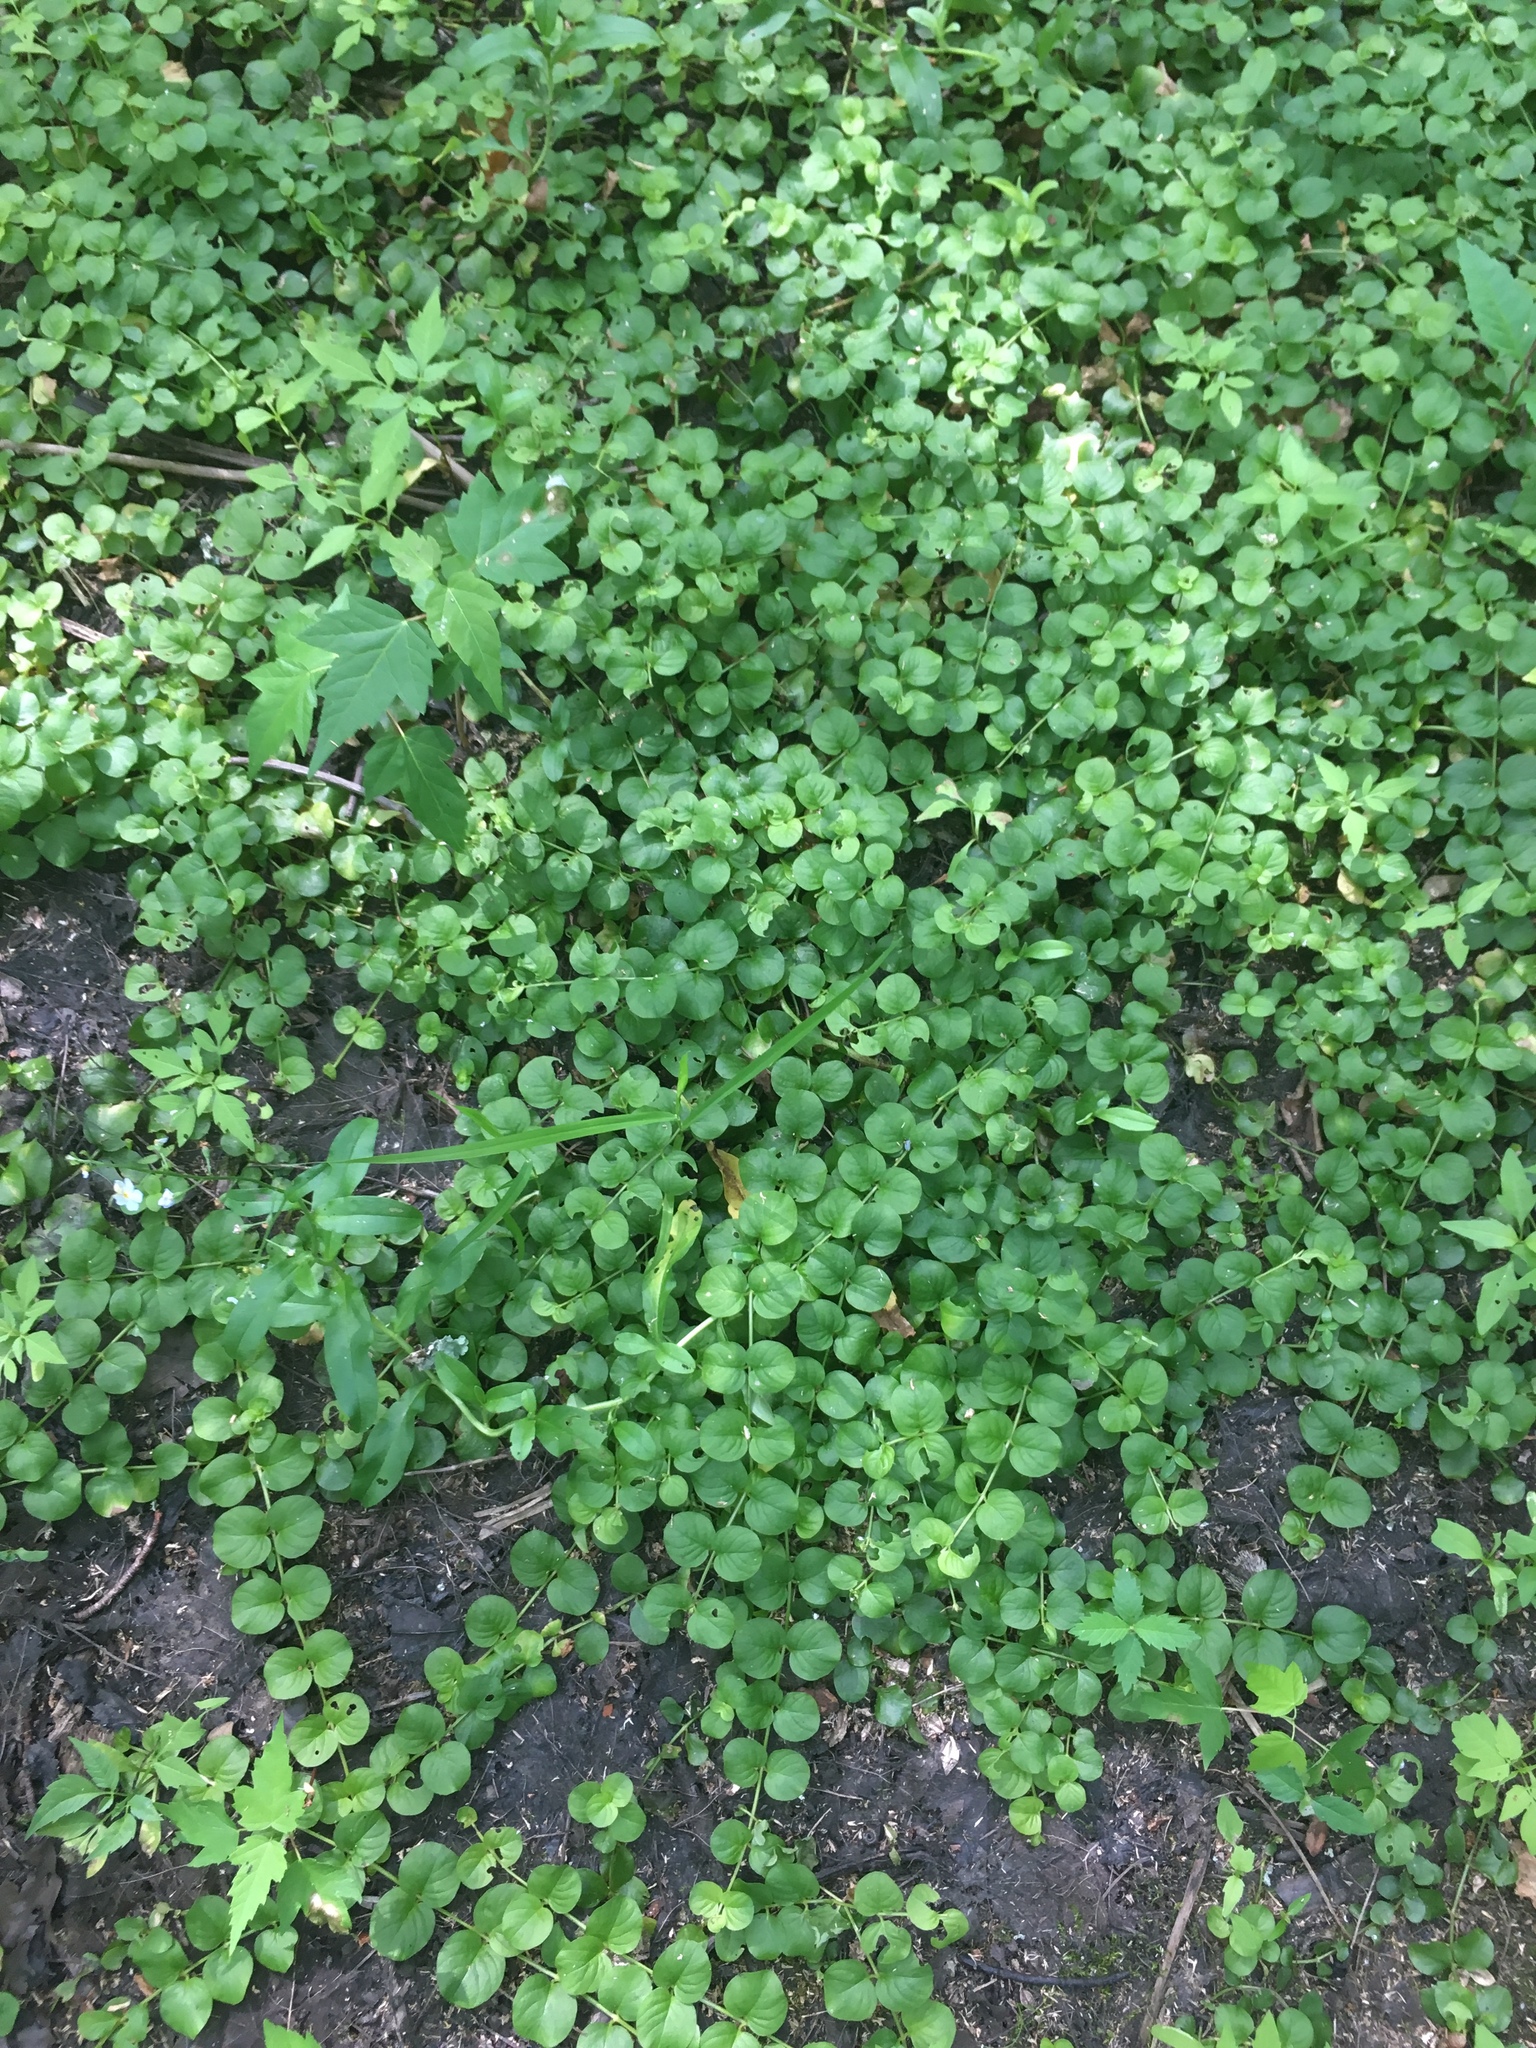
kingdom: Plantae
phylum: Tracheophyta
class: Magnoliopsida
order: Ericales
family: Primulaceae
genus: Lysimachia
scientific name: Lysimachia nummularia
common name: Moneywort
